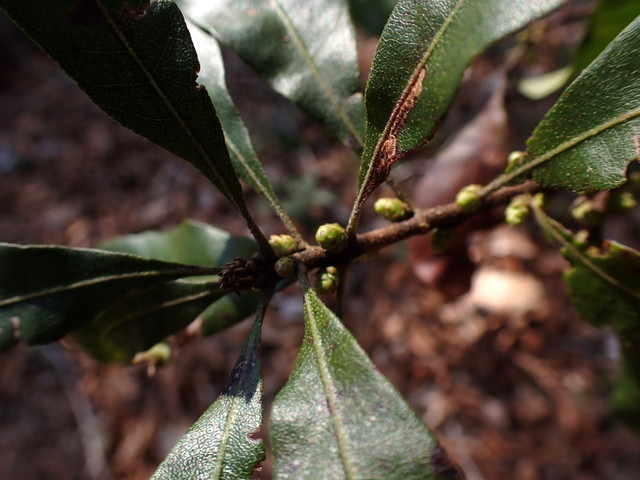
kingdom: Plantae
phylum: Tracheophyta
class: Magnoliopsida
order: Fagales
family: Myricaceae
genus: Morella
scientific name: Morella cerifera
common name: Wax myrtle
